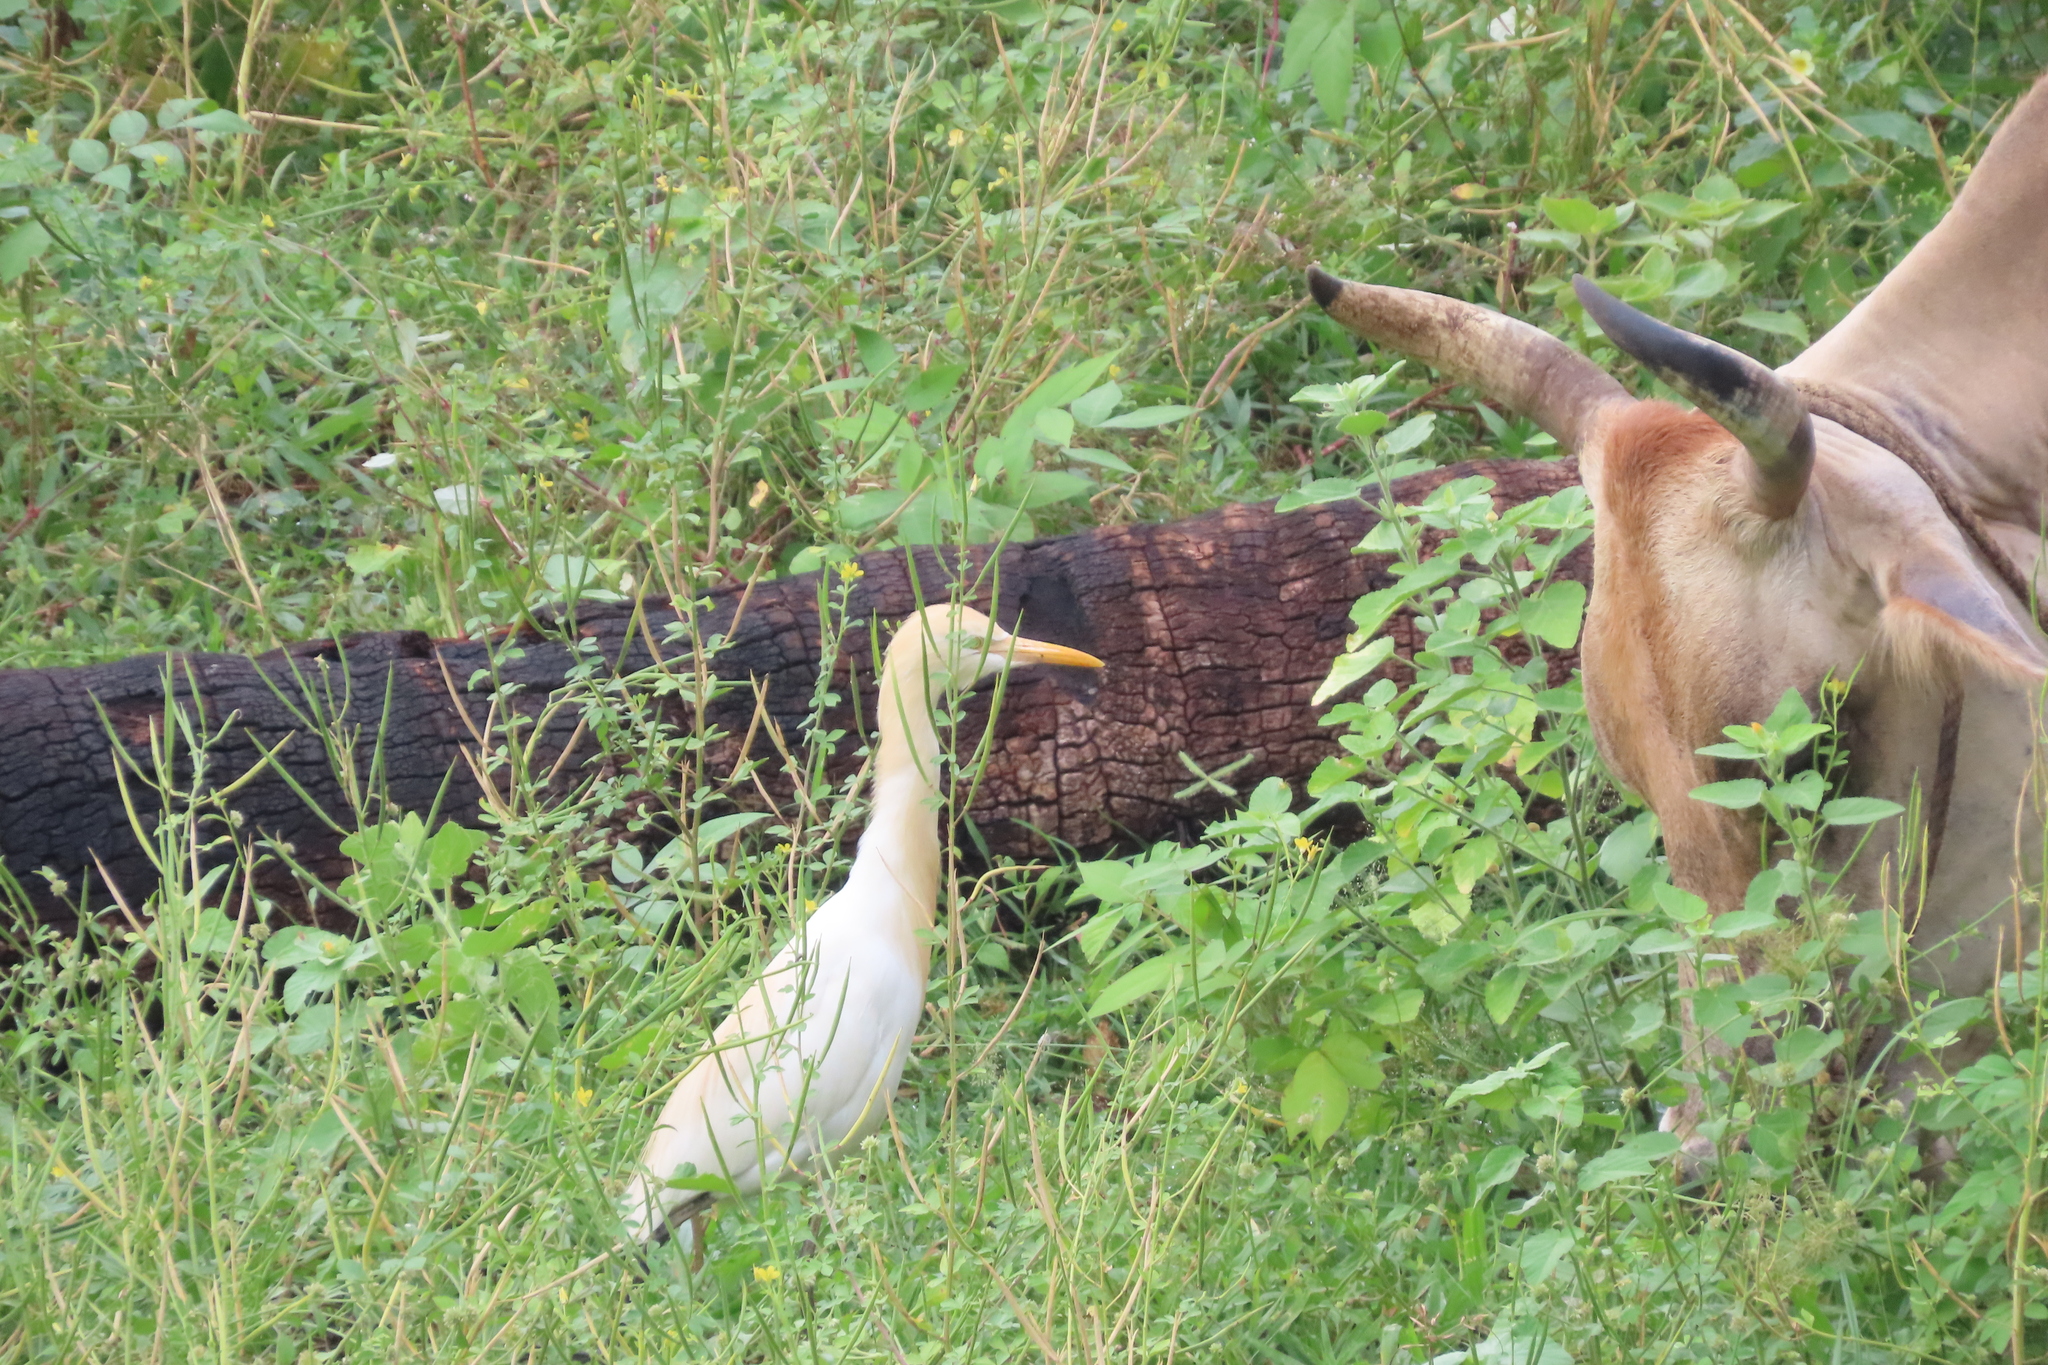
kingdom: Animalia
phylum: Chordata
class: Aves
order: Pelecaniformes
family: Ardeidae
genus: Bubulcus
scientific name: Bubulcus coromandus
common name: Eastern cattle egret
